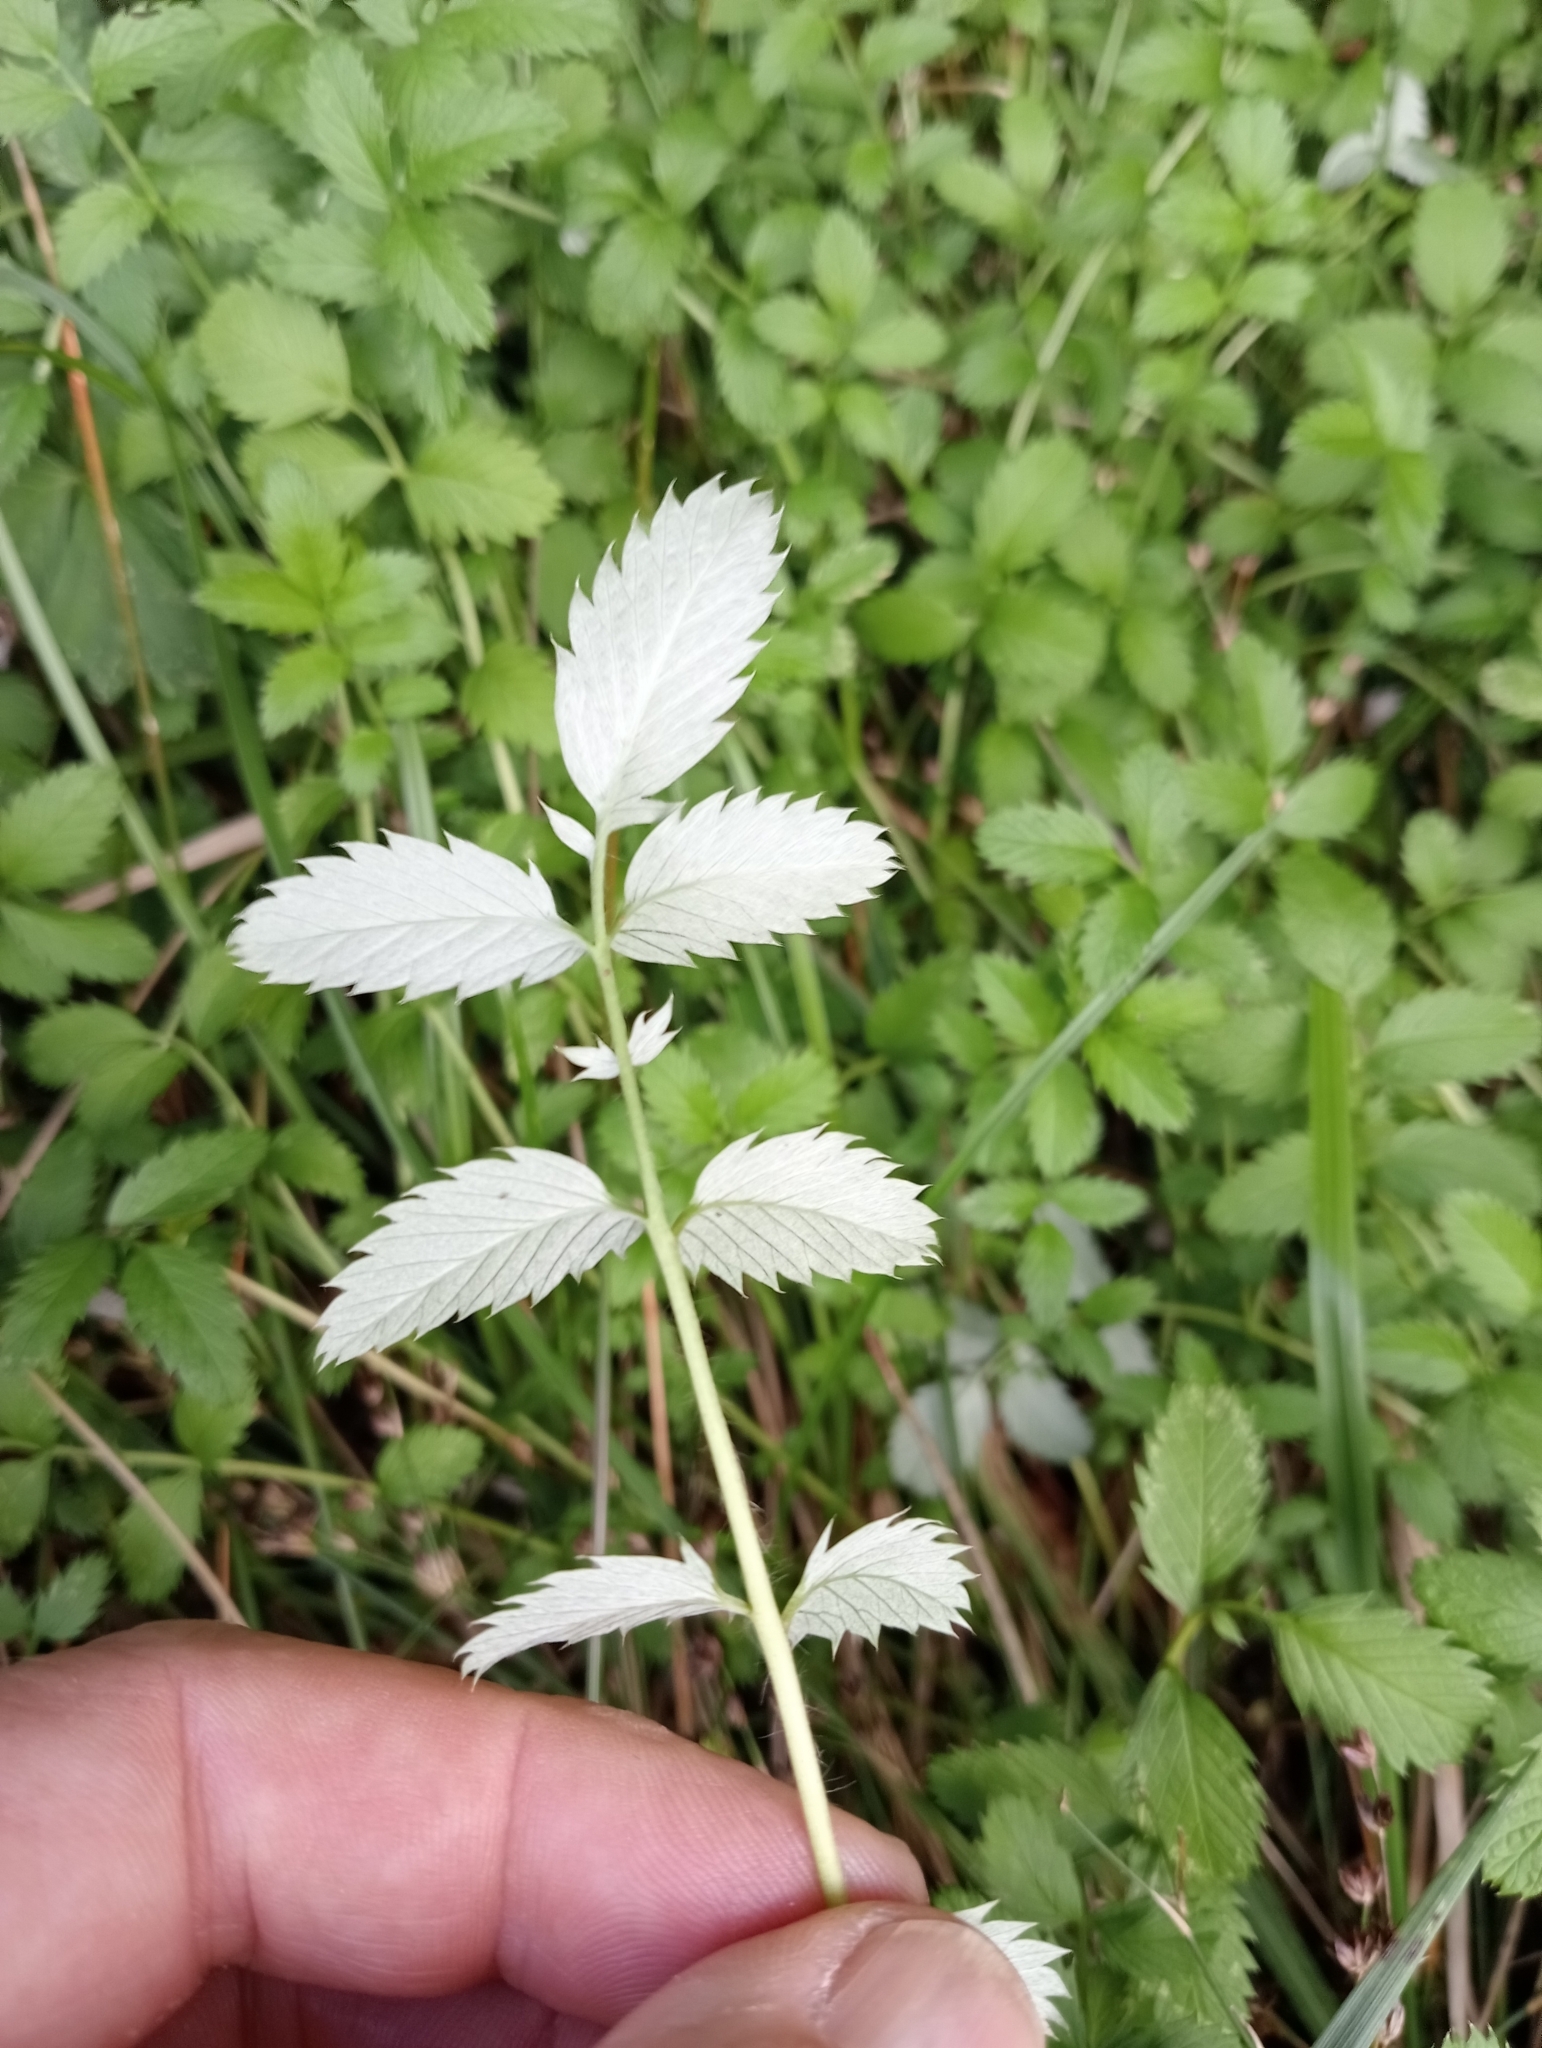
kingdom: Plantae
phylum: Tracheophyta
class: Magnoliopsida
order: Rosales
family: Rosaceae
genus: Argentina
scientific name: Argentina anserinoides
